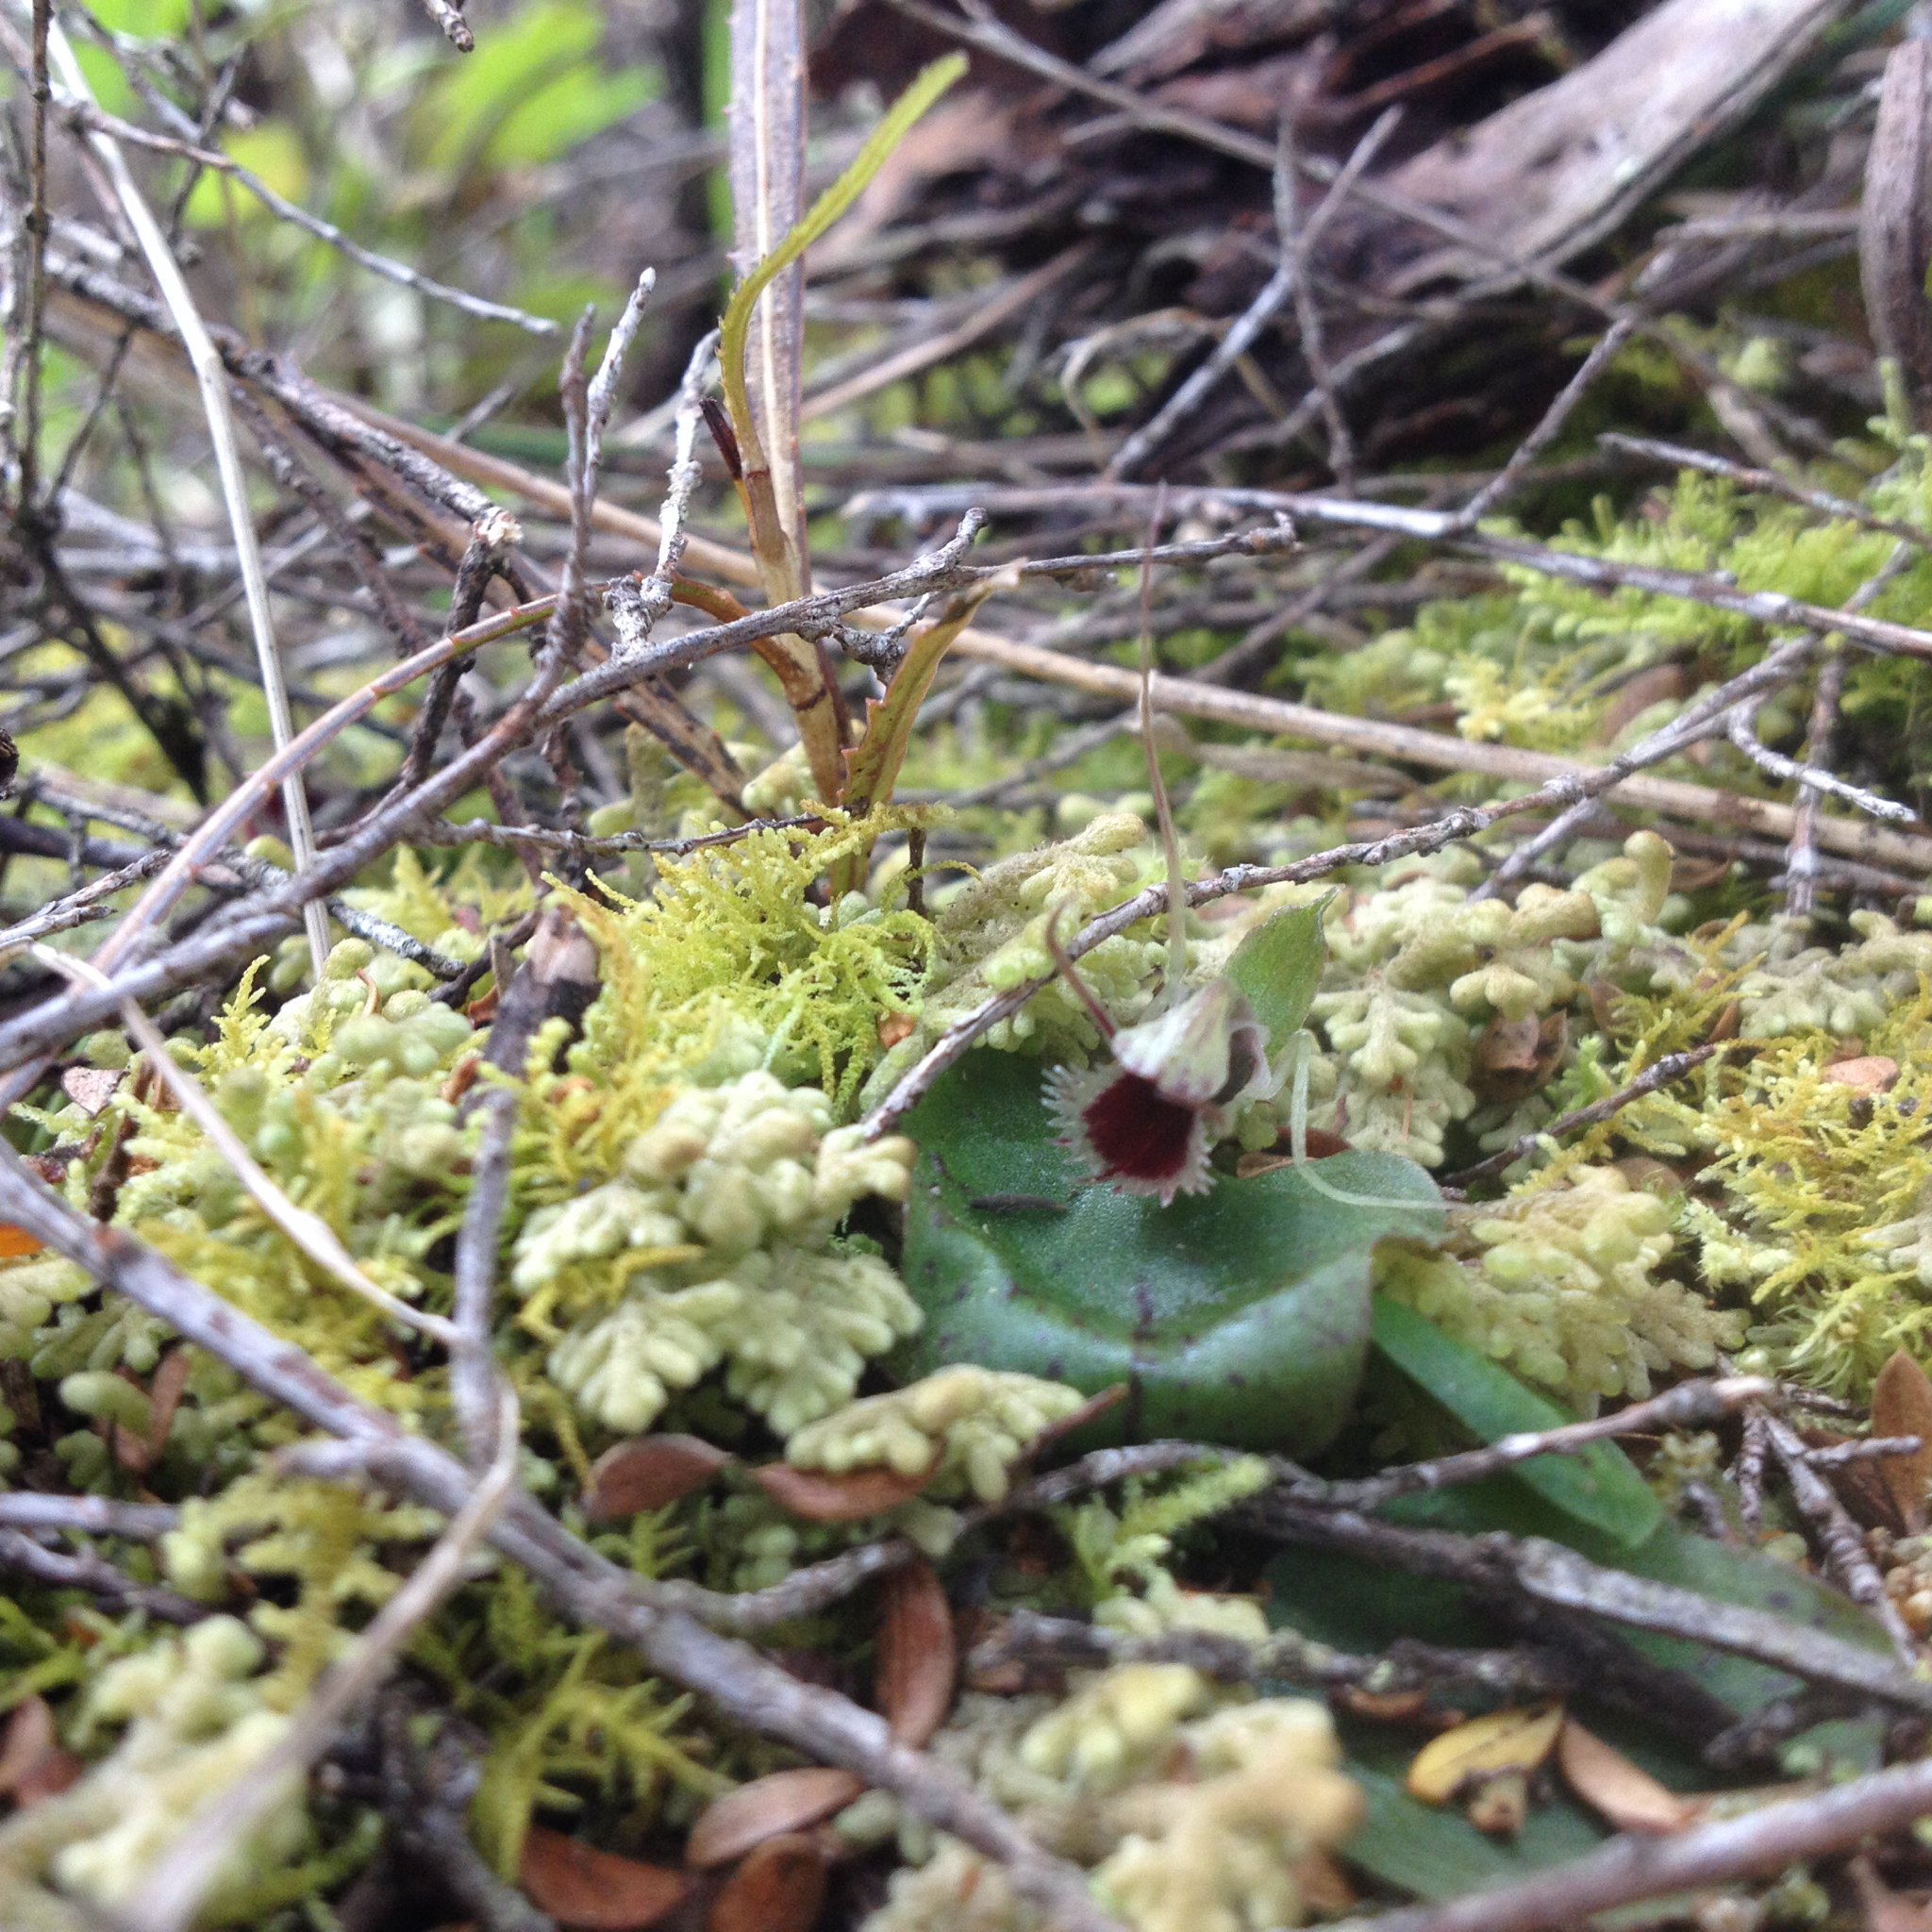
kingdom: Plantae
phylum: Tracheophyta
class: Liliopsida
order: Asparagales
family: Orchidaceae
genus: Corybas
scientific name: Corybas oblongus
